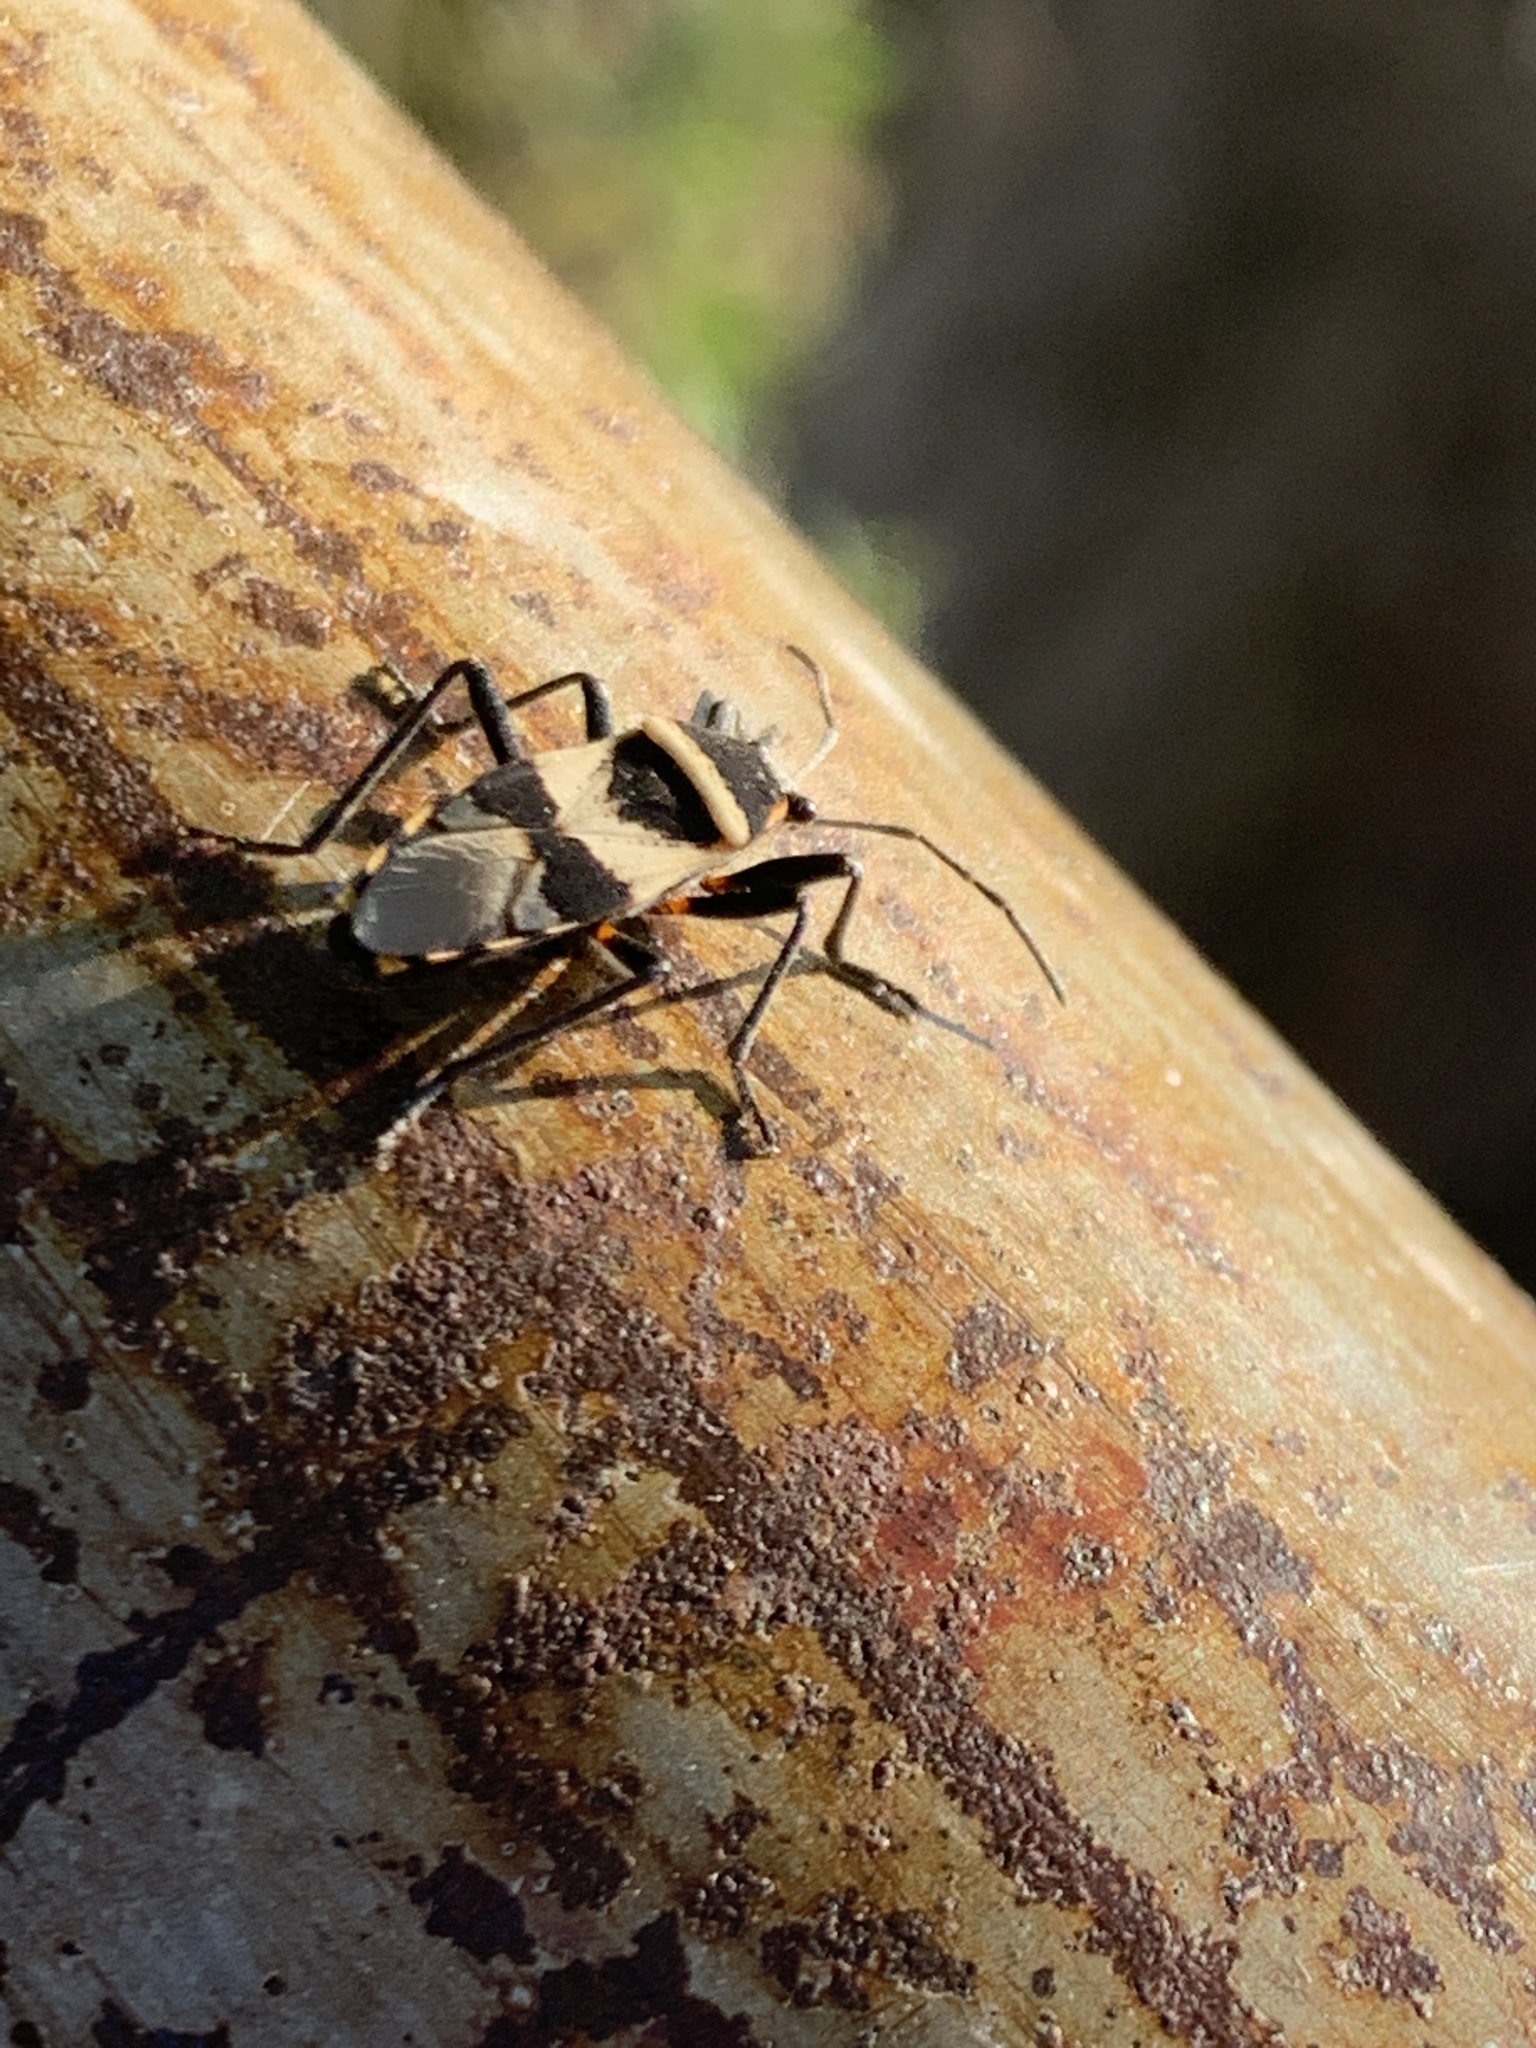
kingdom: Animalia
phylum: Arthropoda
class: Insecta
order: Hemiptera
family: Largidae
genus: Largus
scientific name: Largus fasciatus
